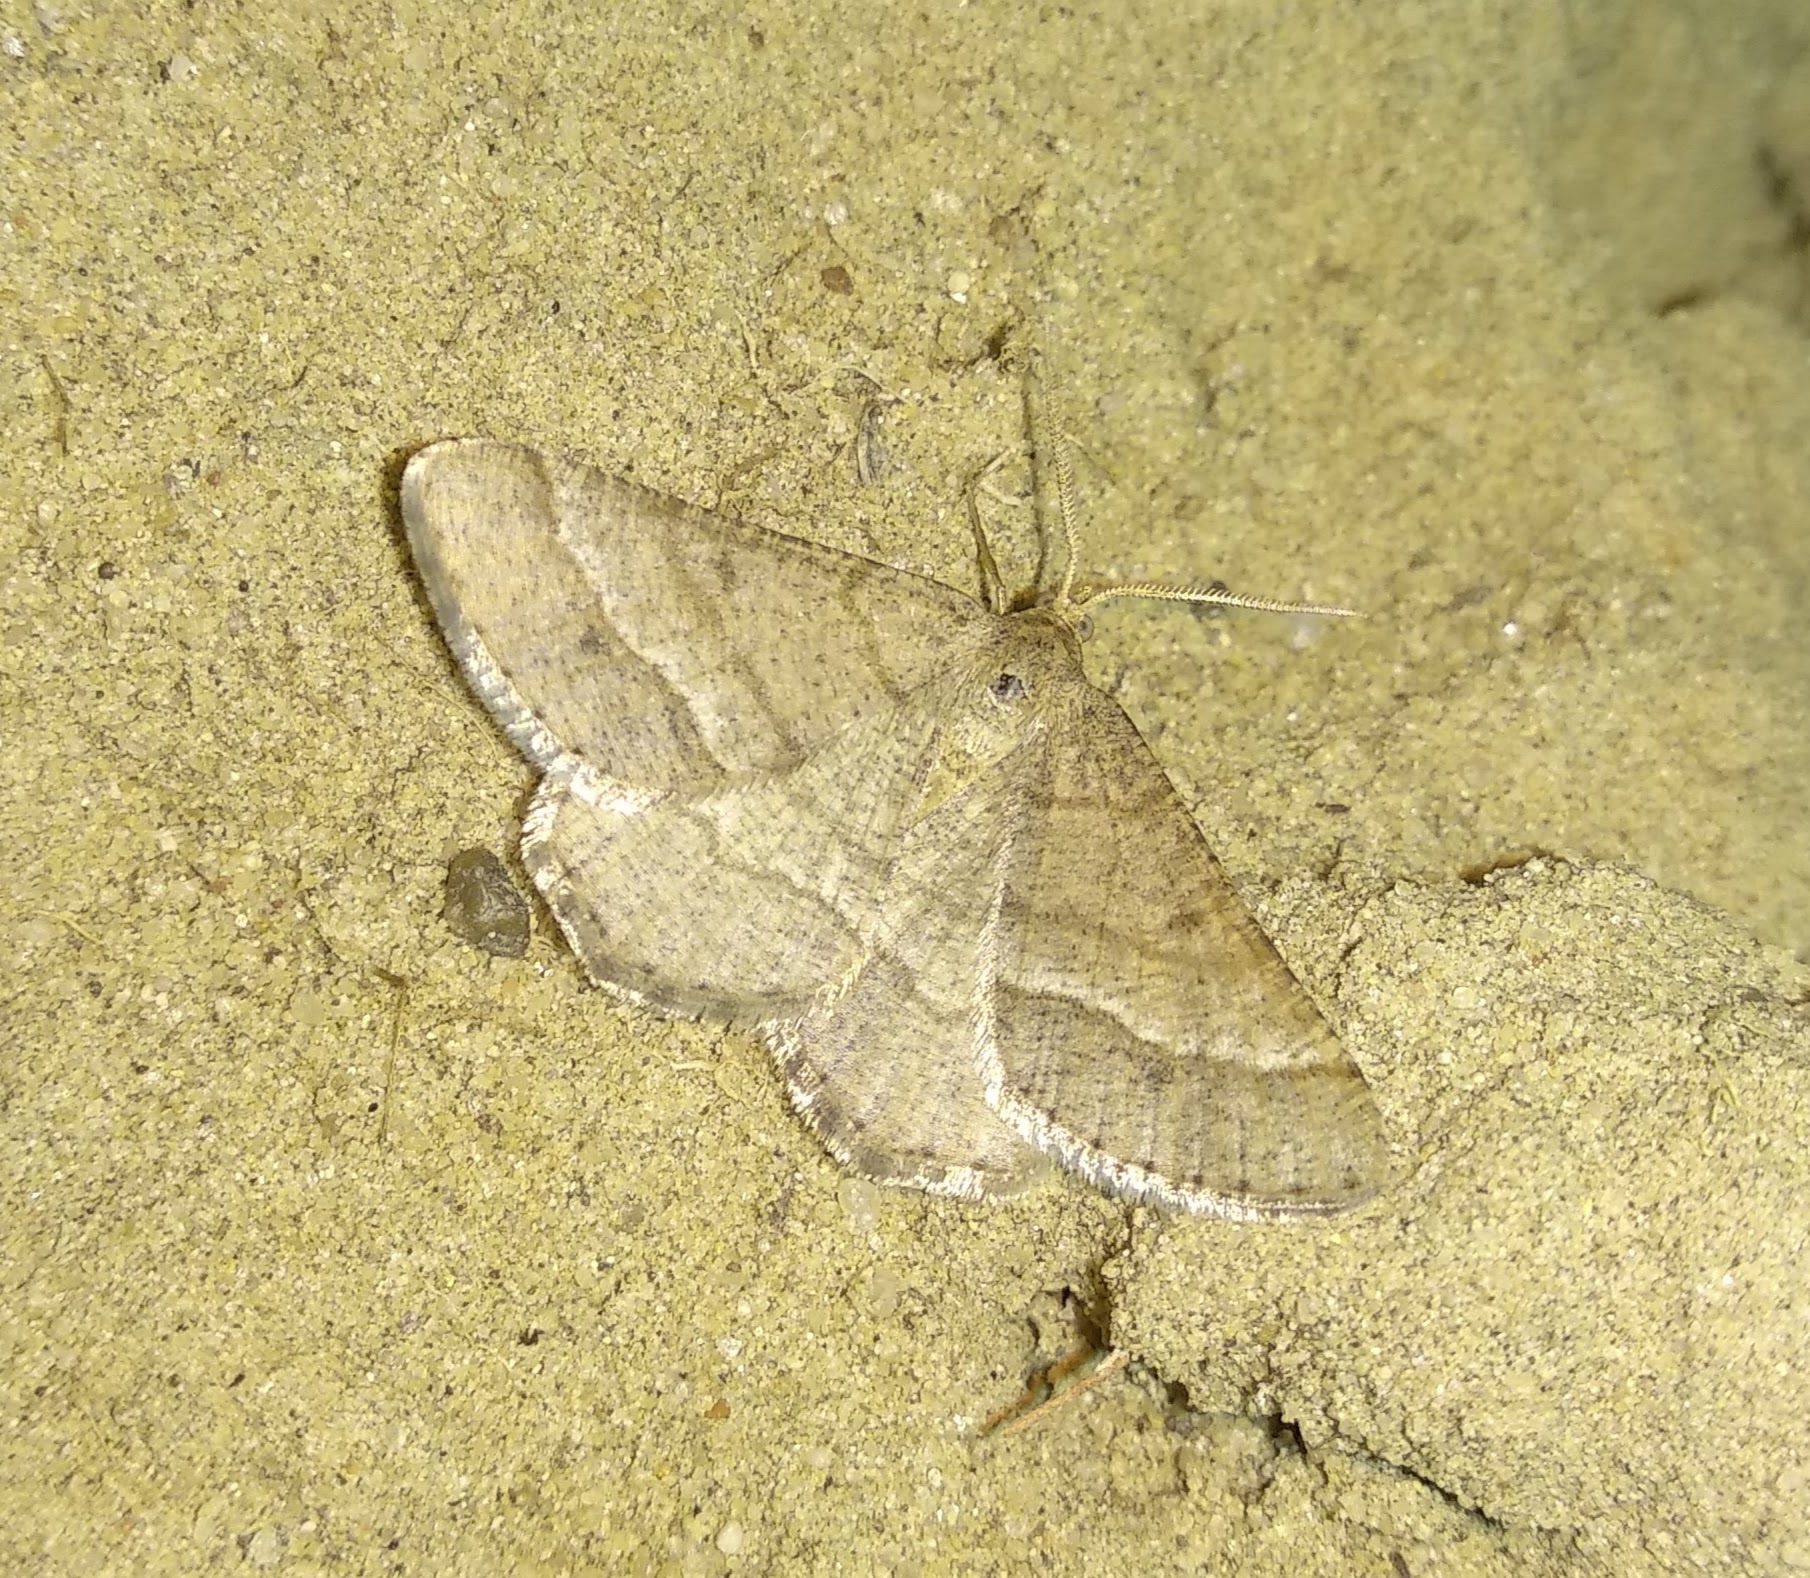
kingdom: Animalia
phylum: Arthropoda
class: Insecta
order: Lepidoptera
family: Geometridae
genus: Tephrina
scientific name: Tephrina murinaria
